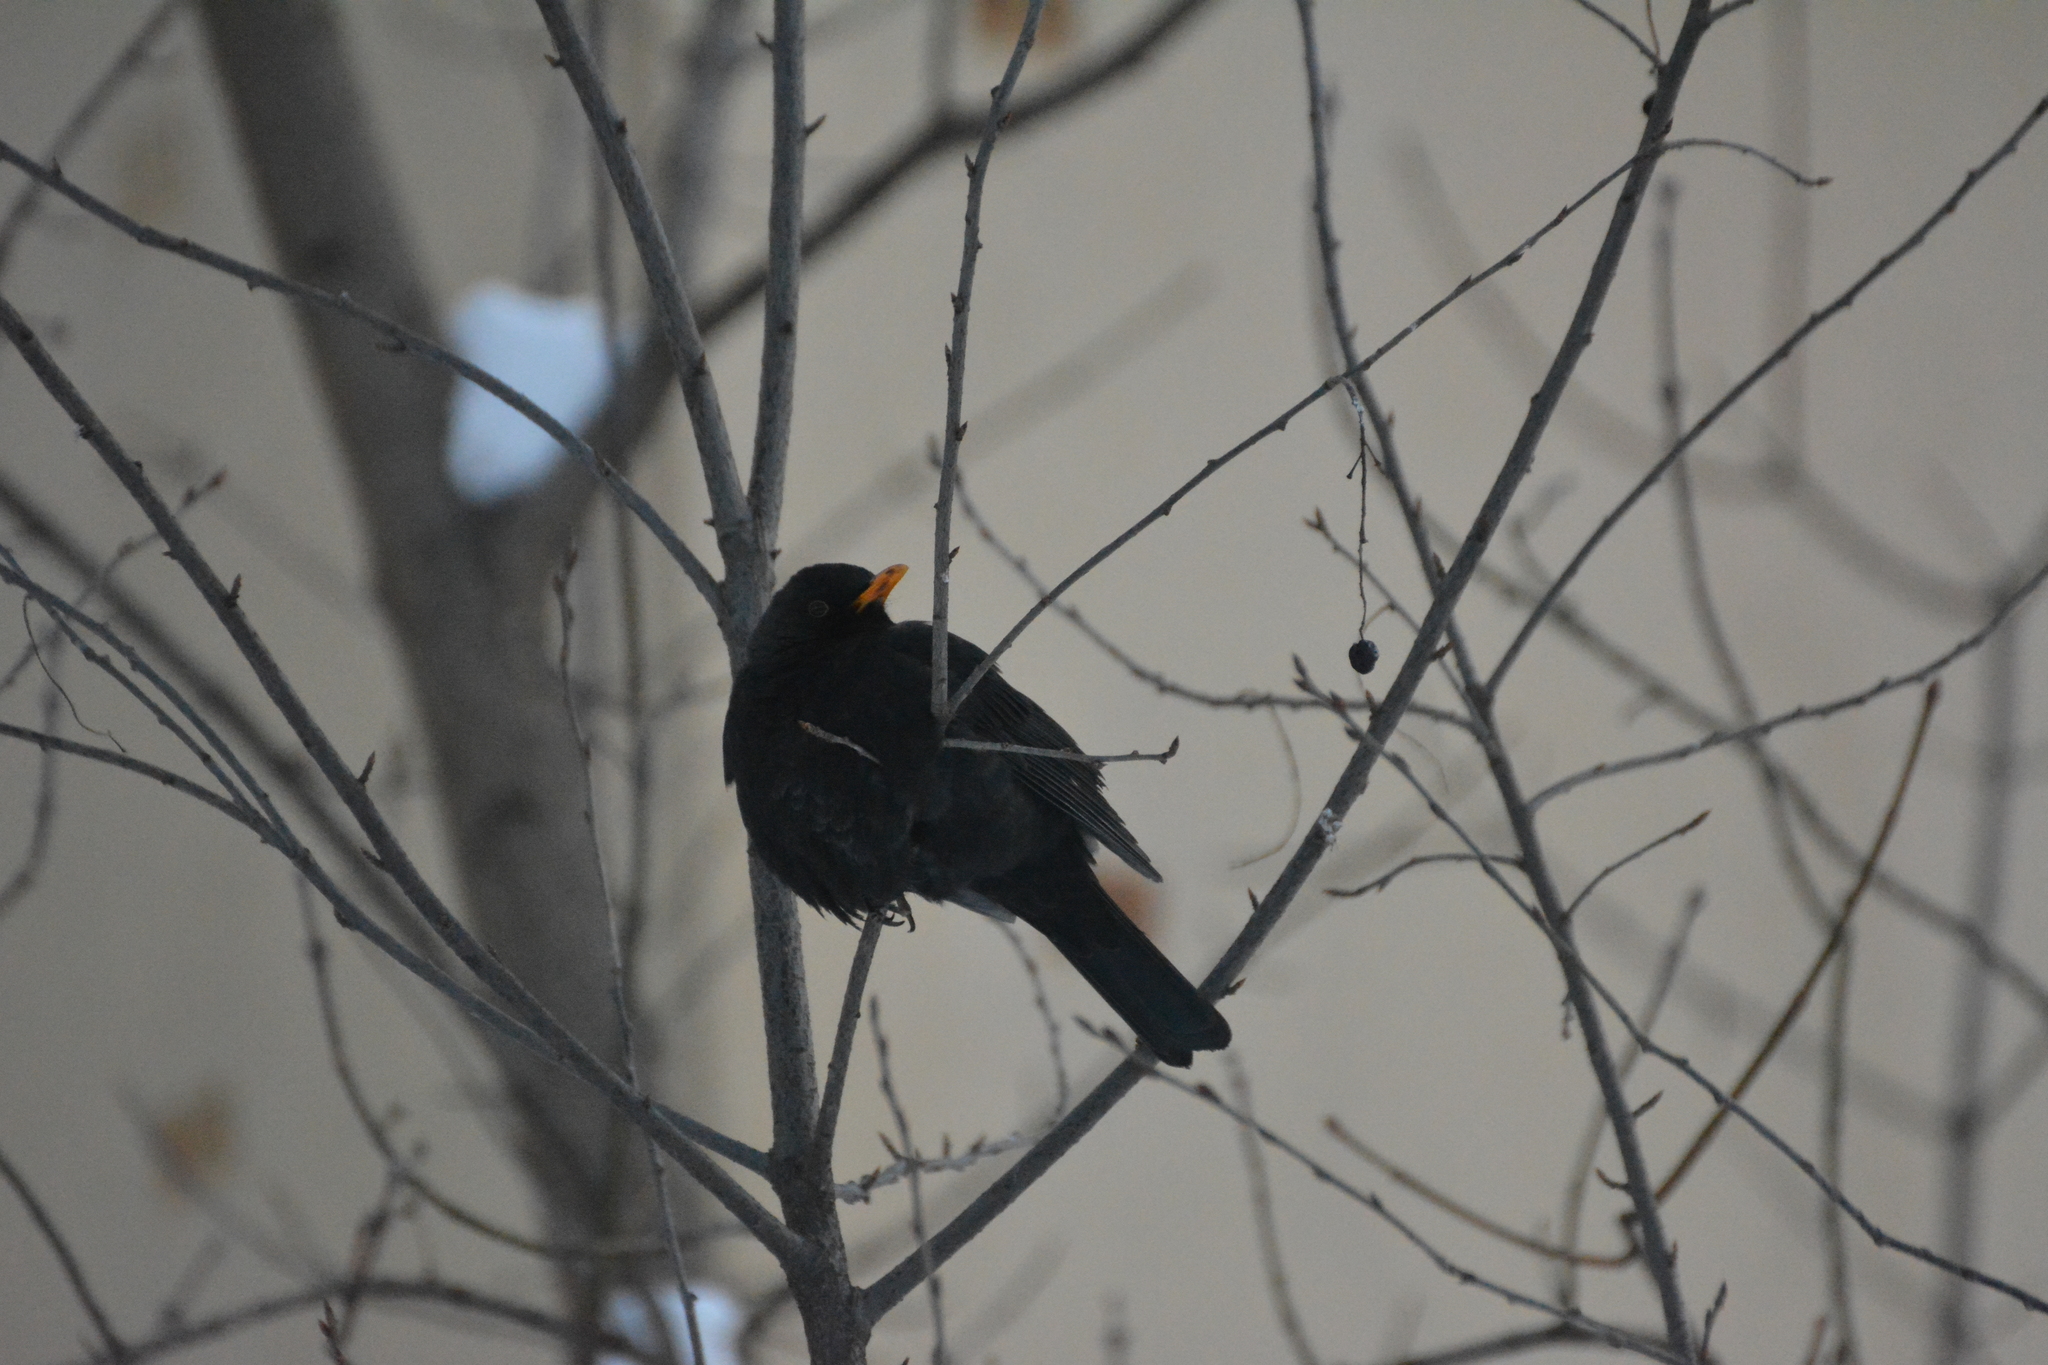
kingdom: Animalia
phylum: Chordata
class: Aves
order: Passeriformes
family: Turdidae
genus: Turdus
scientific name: Turdus merula
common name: Common blackbird
